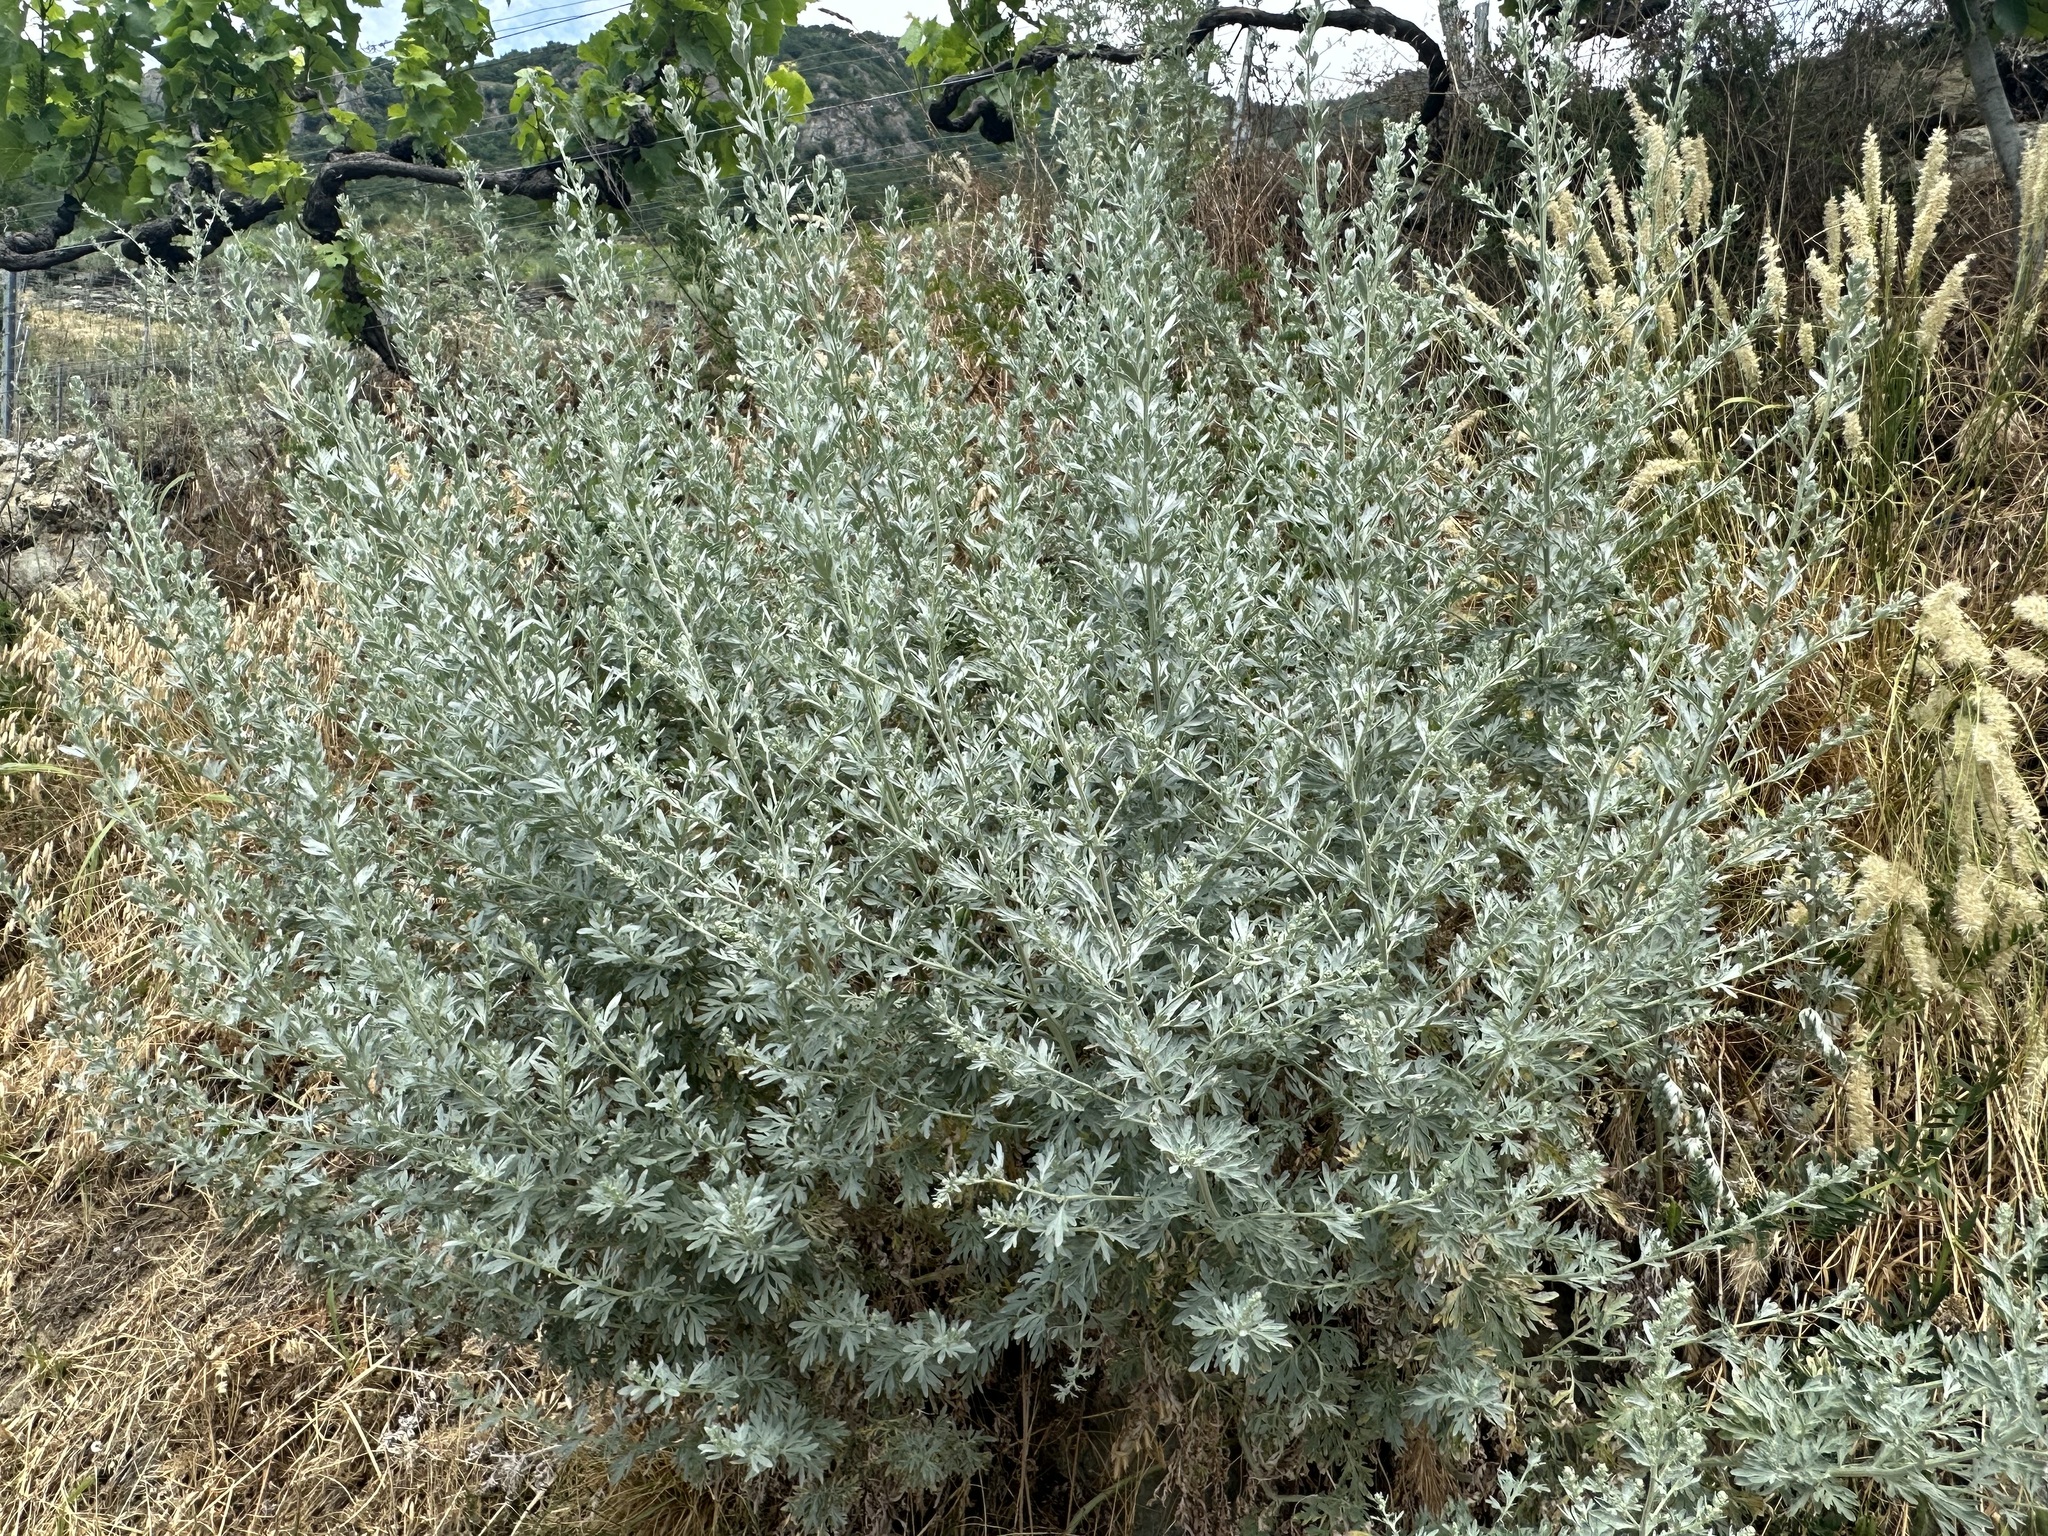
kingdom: Plantae
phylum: Tracheophyta
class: Magnoliopsida
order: Asterales
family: Asteraceae
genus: Artemisia
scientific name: Artemisia absinthium
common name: Wormwood
